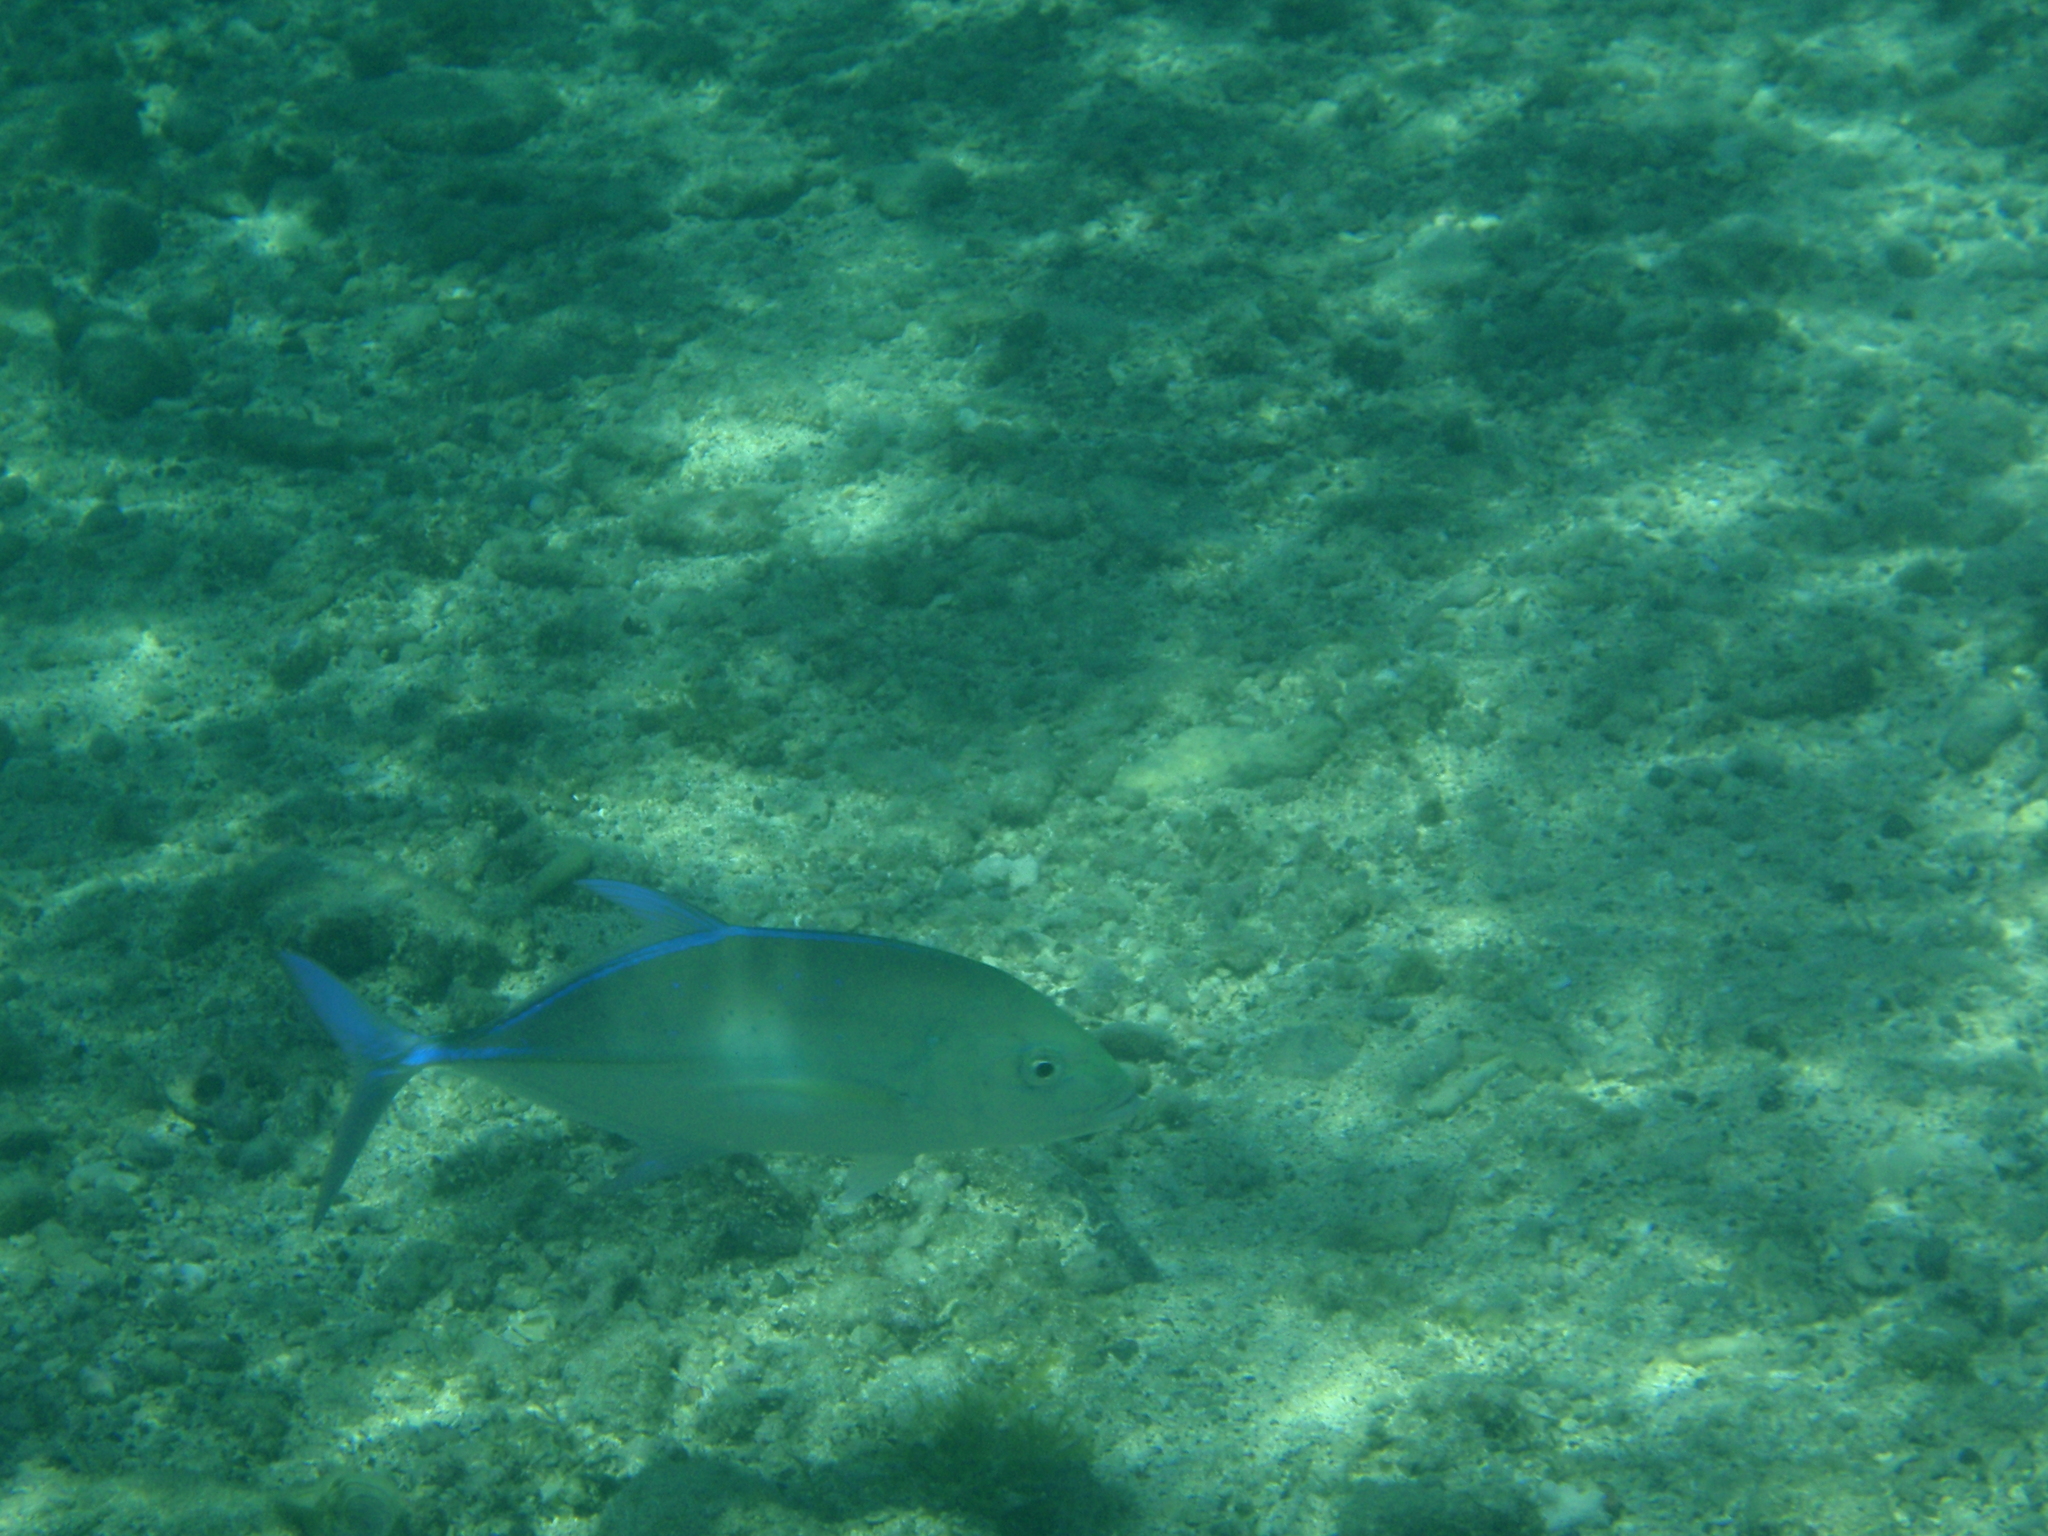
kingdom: Animalia
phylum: Chordata
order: Perciformes
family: Carangidae
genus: Caranx
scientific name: Caranx melampygus
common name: Bluefin trevally
